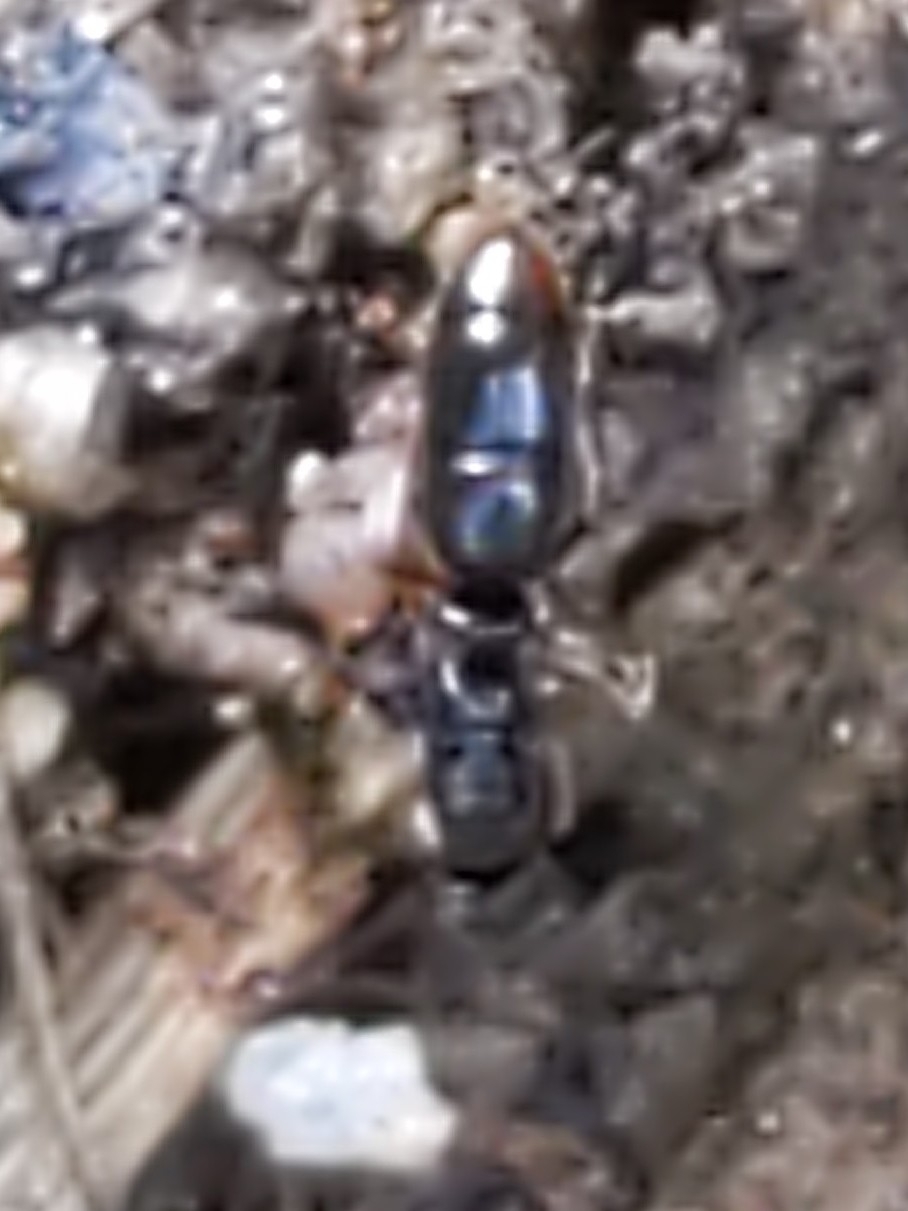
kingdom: Animalia
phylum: Arthropoda
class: Insecta
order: Hymenoptera
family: Formicidae
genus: Ponera
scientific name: Ponera pennsylvanica
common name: Pennsylvania ponera
